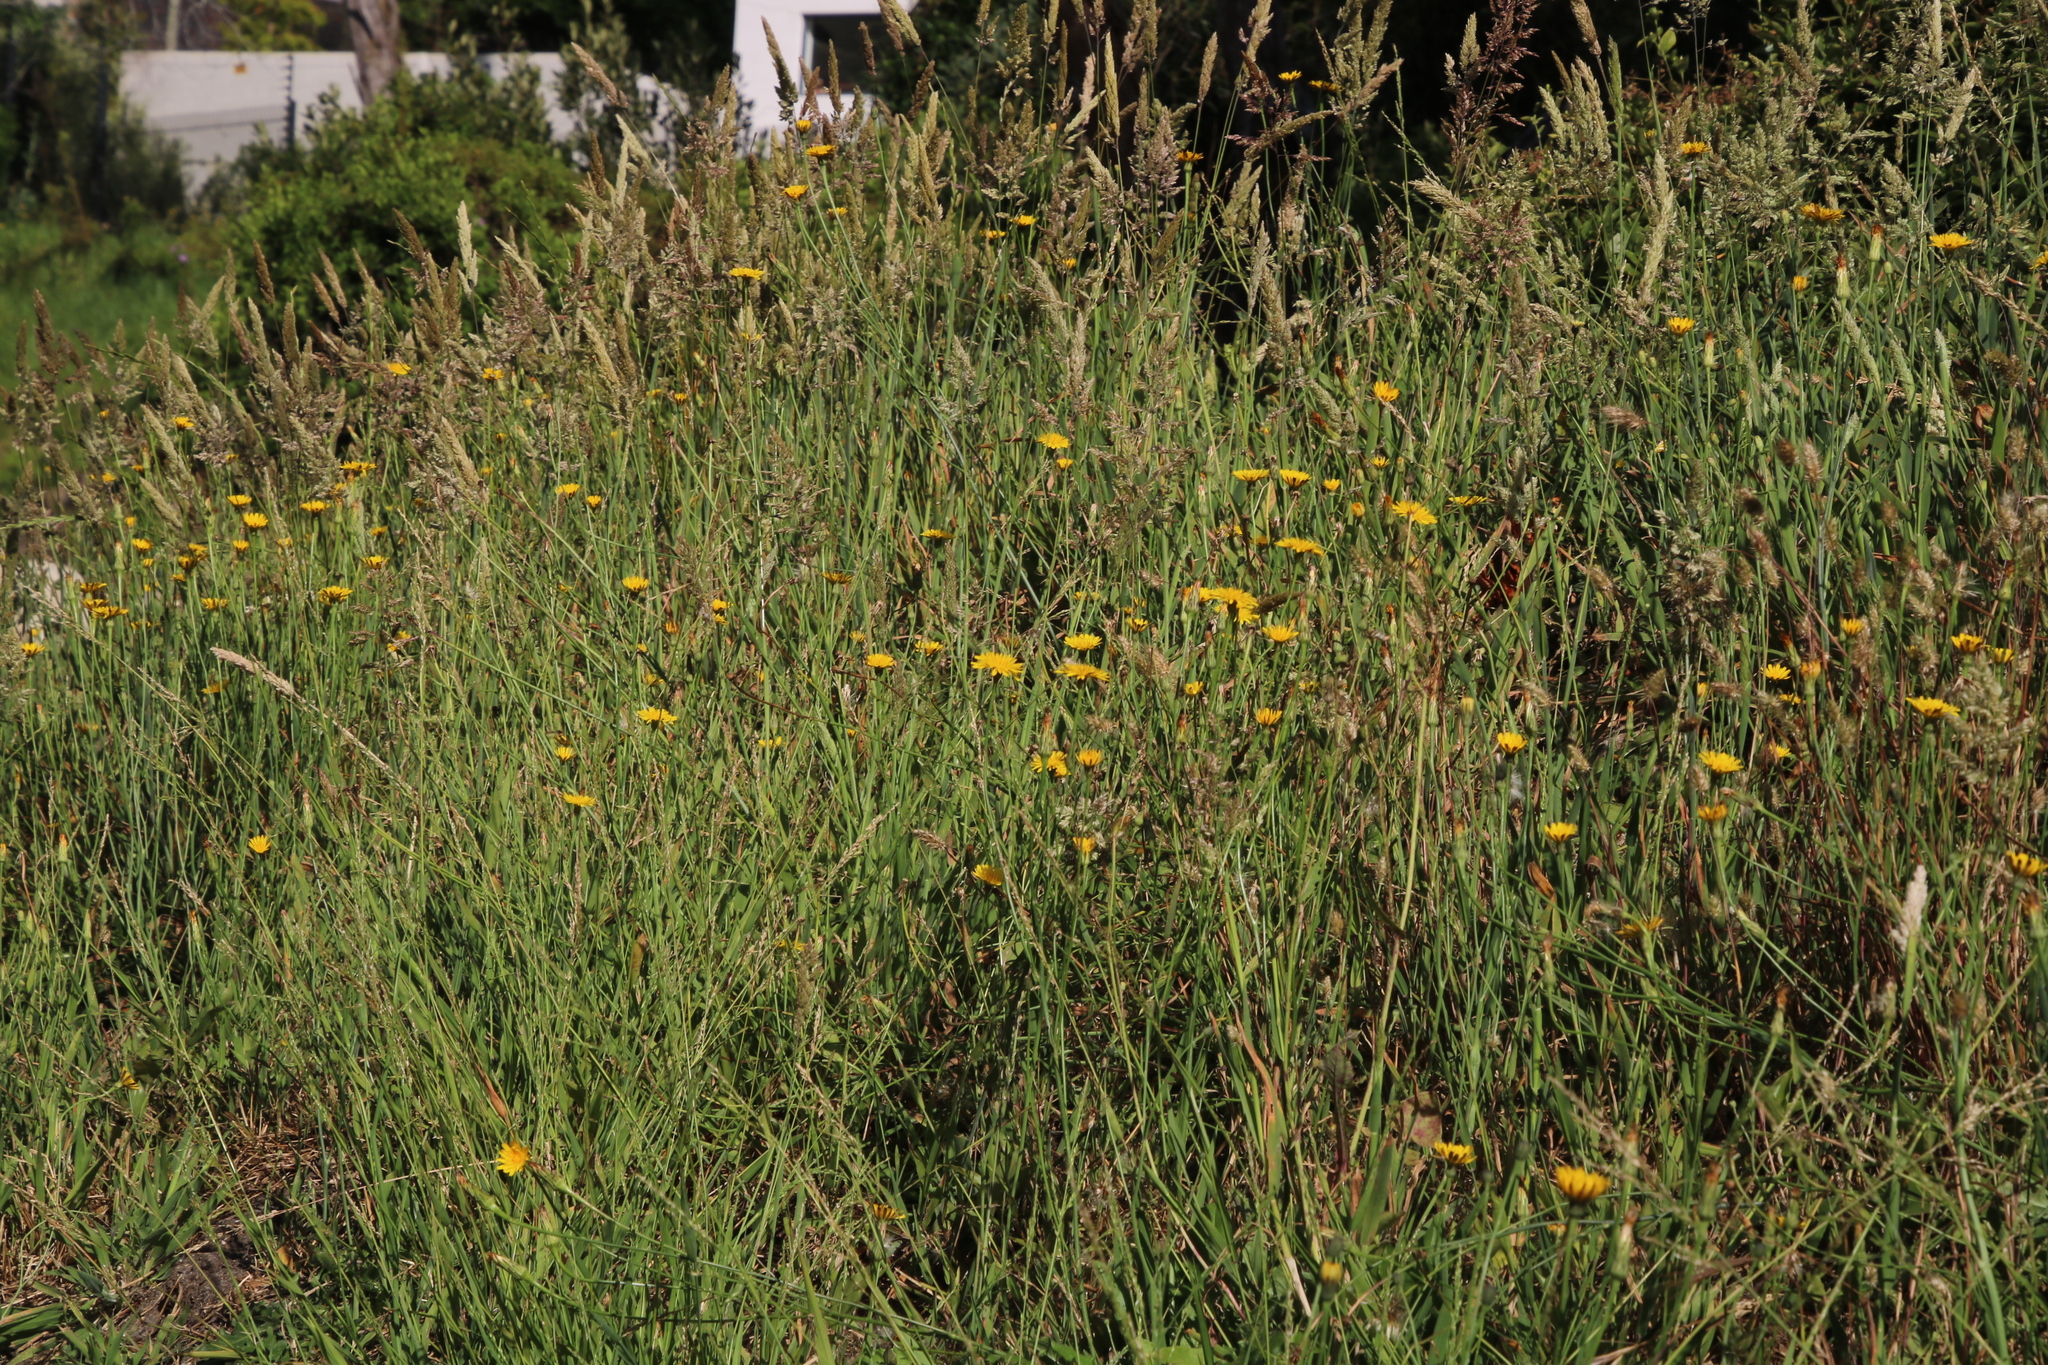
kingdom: Plantae
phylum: Tracheophyta
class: Magnoliopsida
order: Asterales
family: Asteraceae
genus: Hypochaeris
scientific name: Hypochaeris radicata
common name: Flatweed
